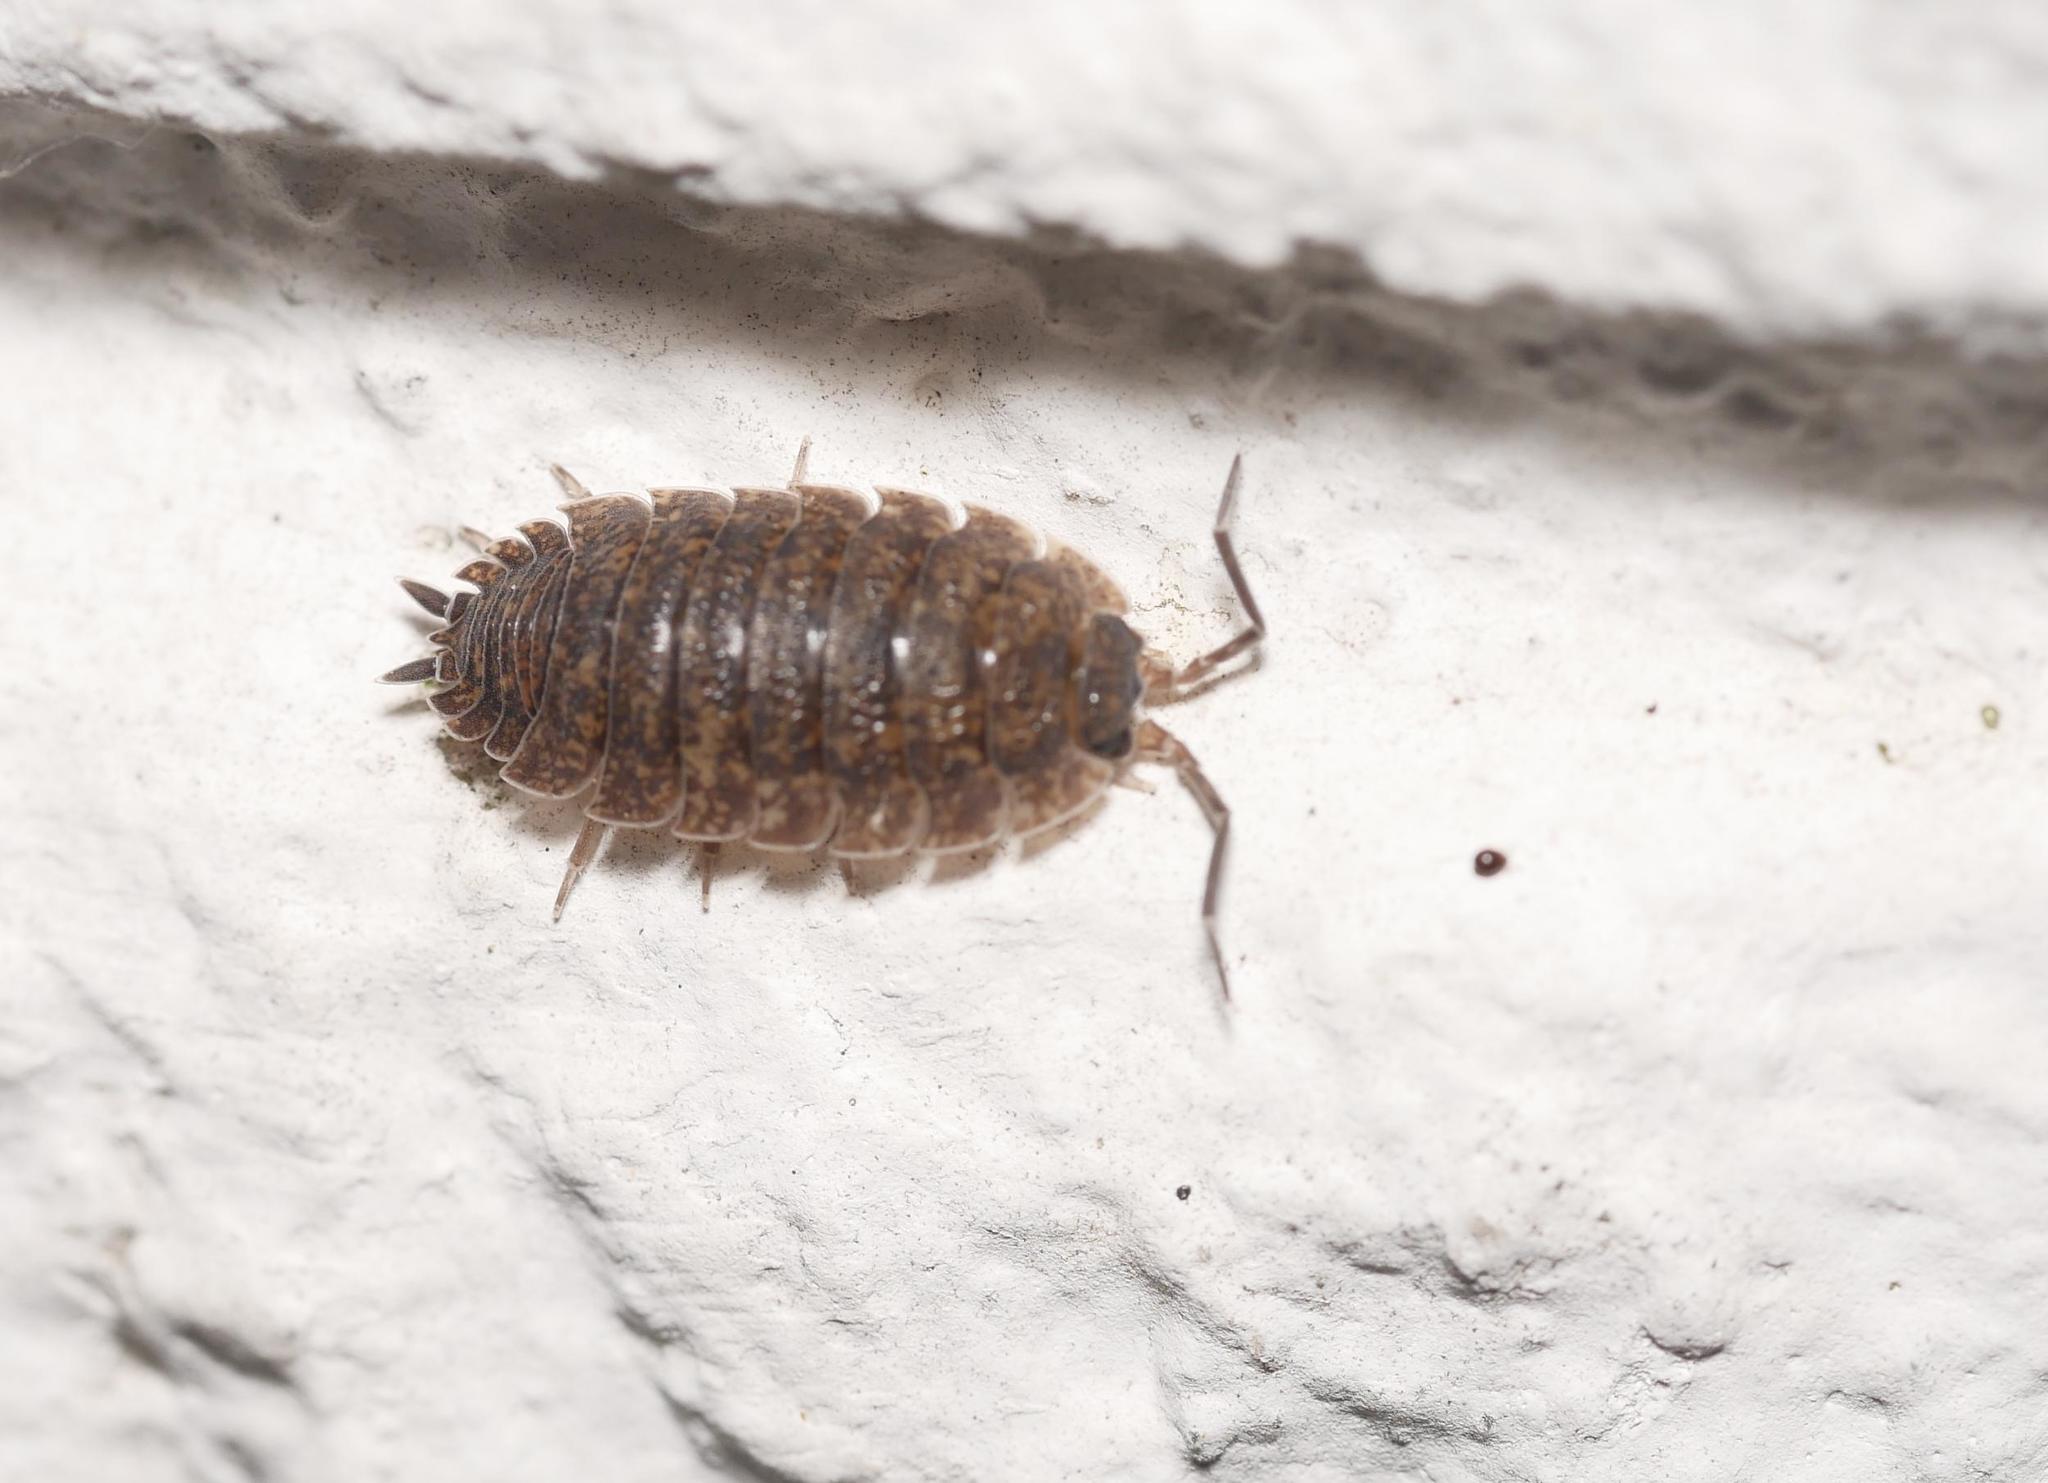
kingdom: Animalia
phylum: Arthropoda
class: Malacostraca
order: Isopoda
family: Porcellionidae
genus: Porcellio
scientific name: Porcellio scaber
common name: Common rough woodlouse
